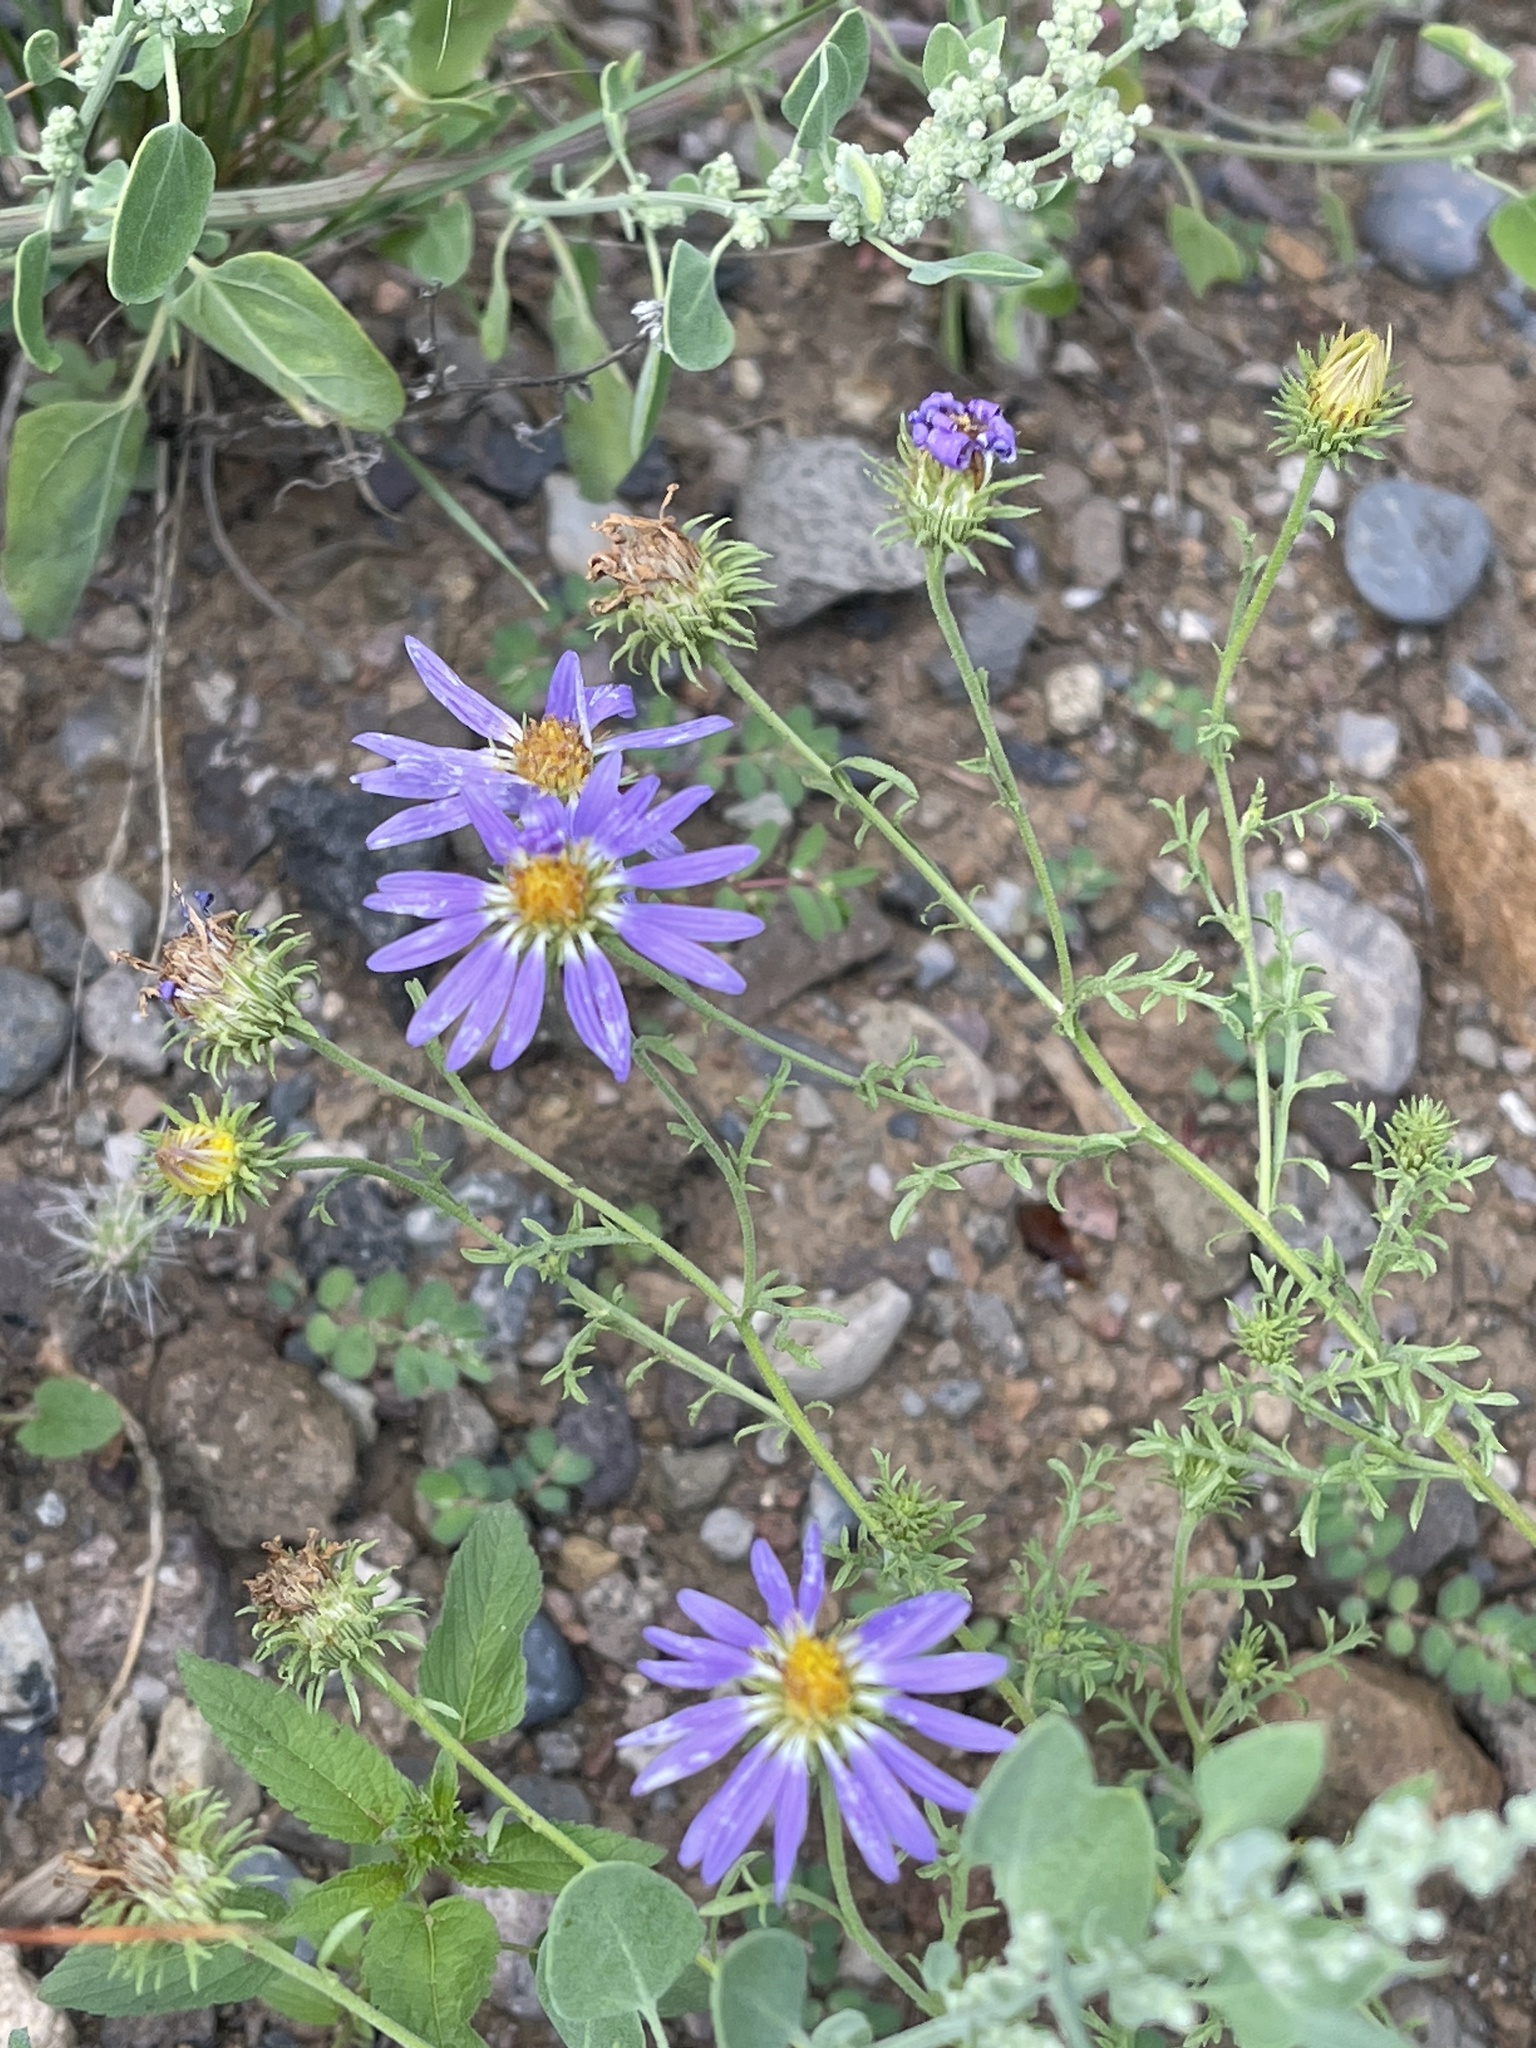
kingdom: Plantae
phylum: Tracheophyta
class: Magnoliopsida
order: Asterales
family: Asteraceae
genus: Machaeranthera
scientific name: Machaeranthera tanacetifolia
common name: Tansy-aster
